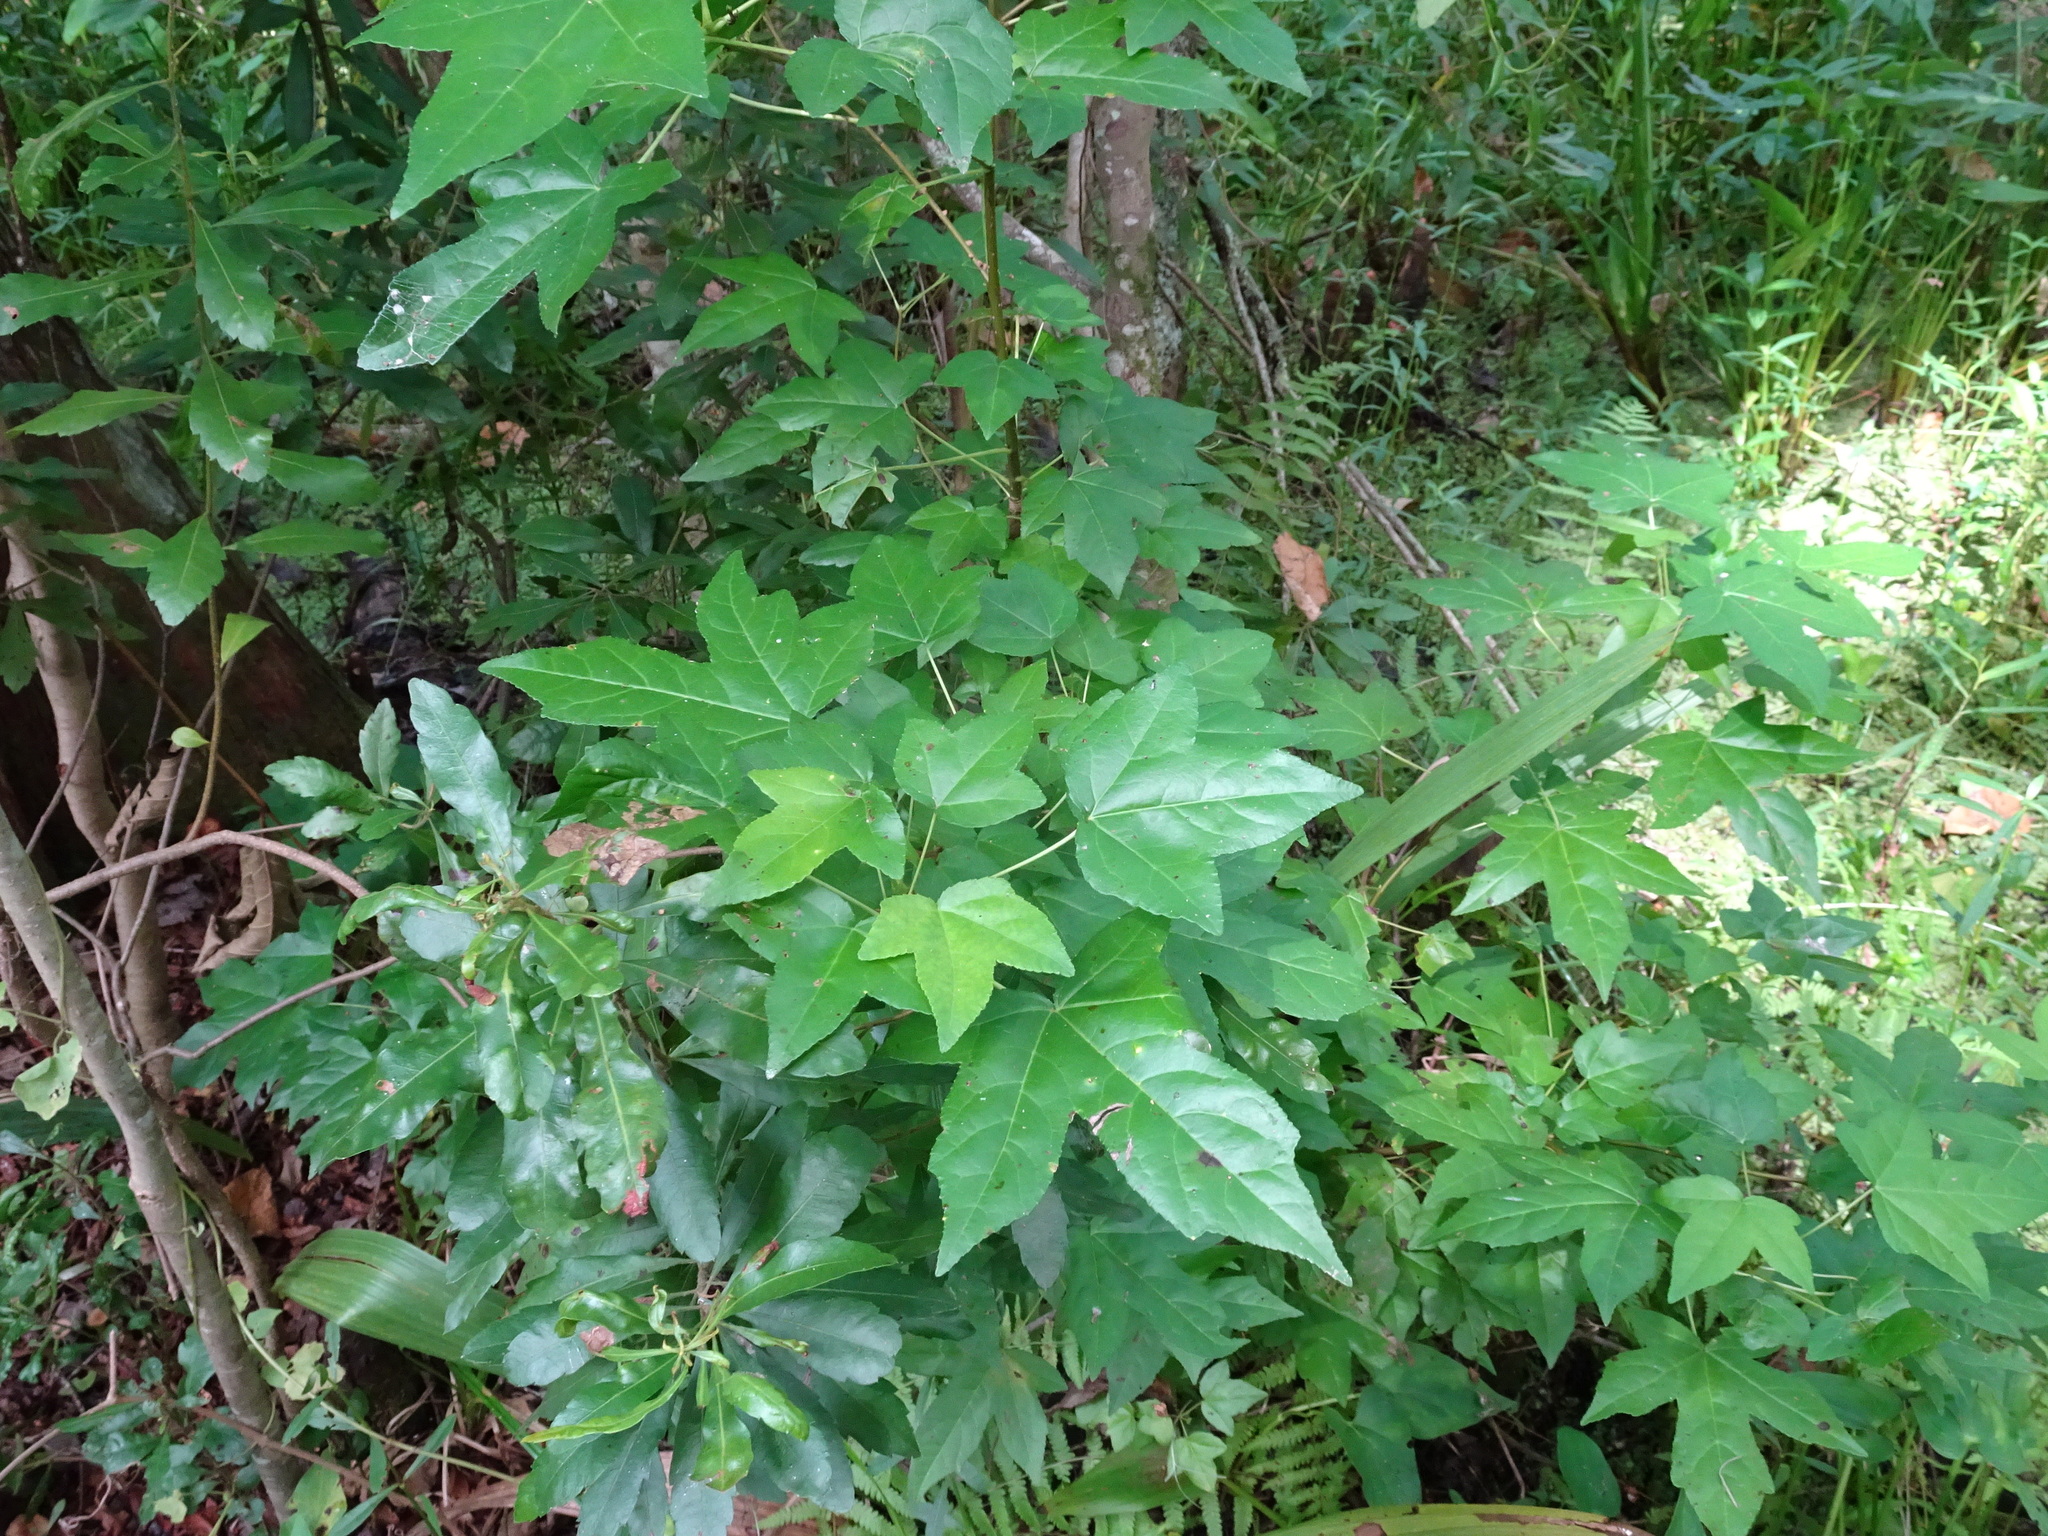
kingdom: Plantae
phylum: Tracheophyta
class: Magnoliopsida
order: Saxifragales
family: Altingiaceae
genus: Liquidambar
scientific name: Liquidambar styraciflua
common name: Sweet gum
